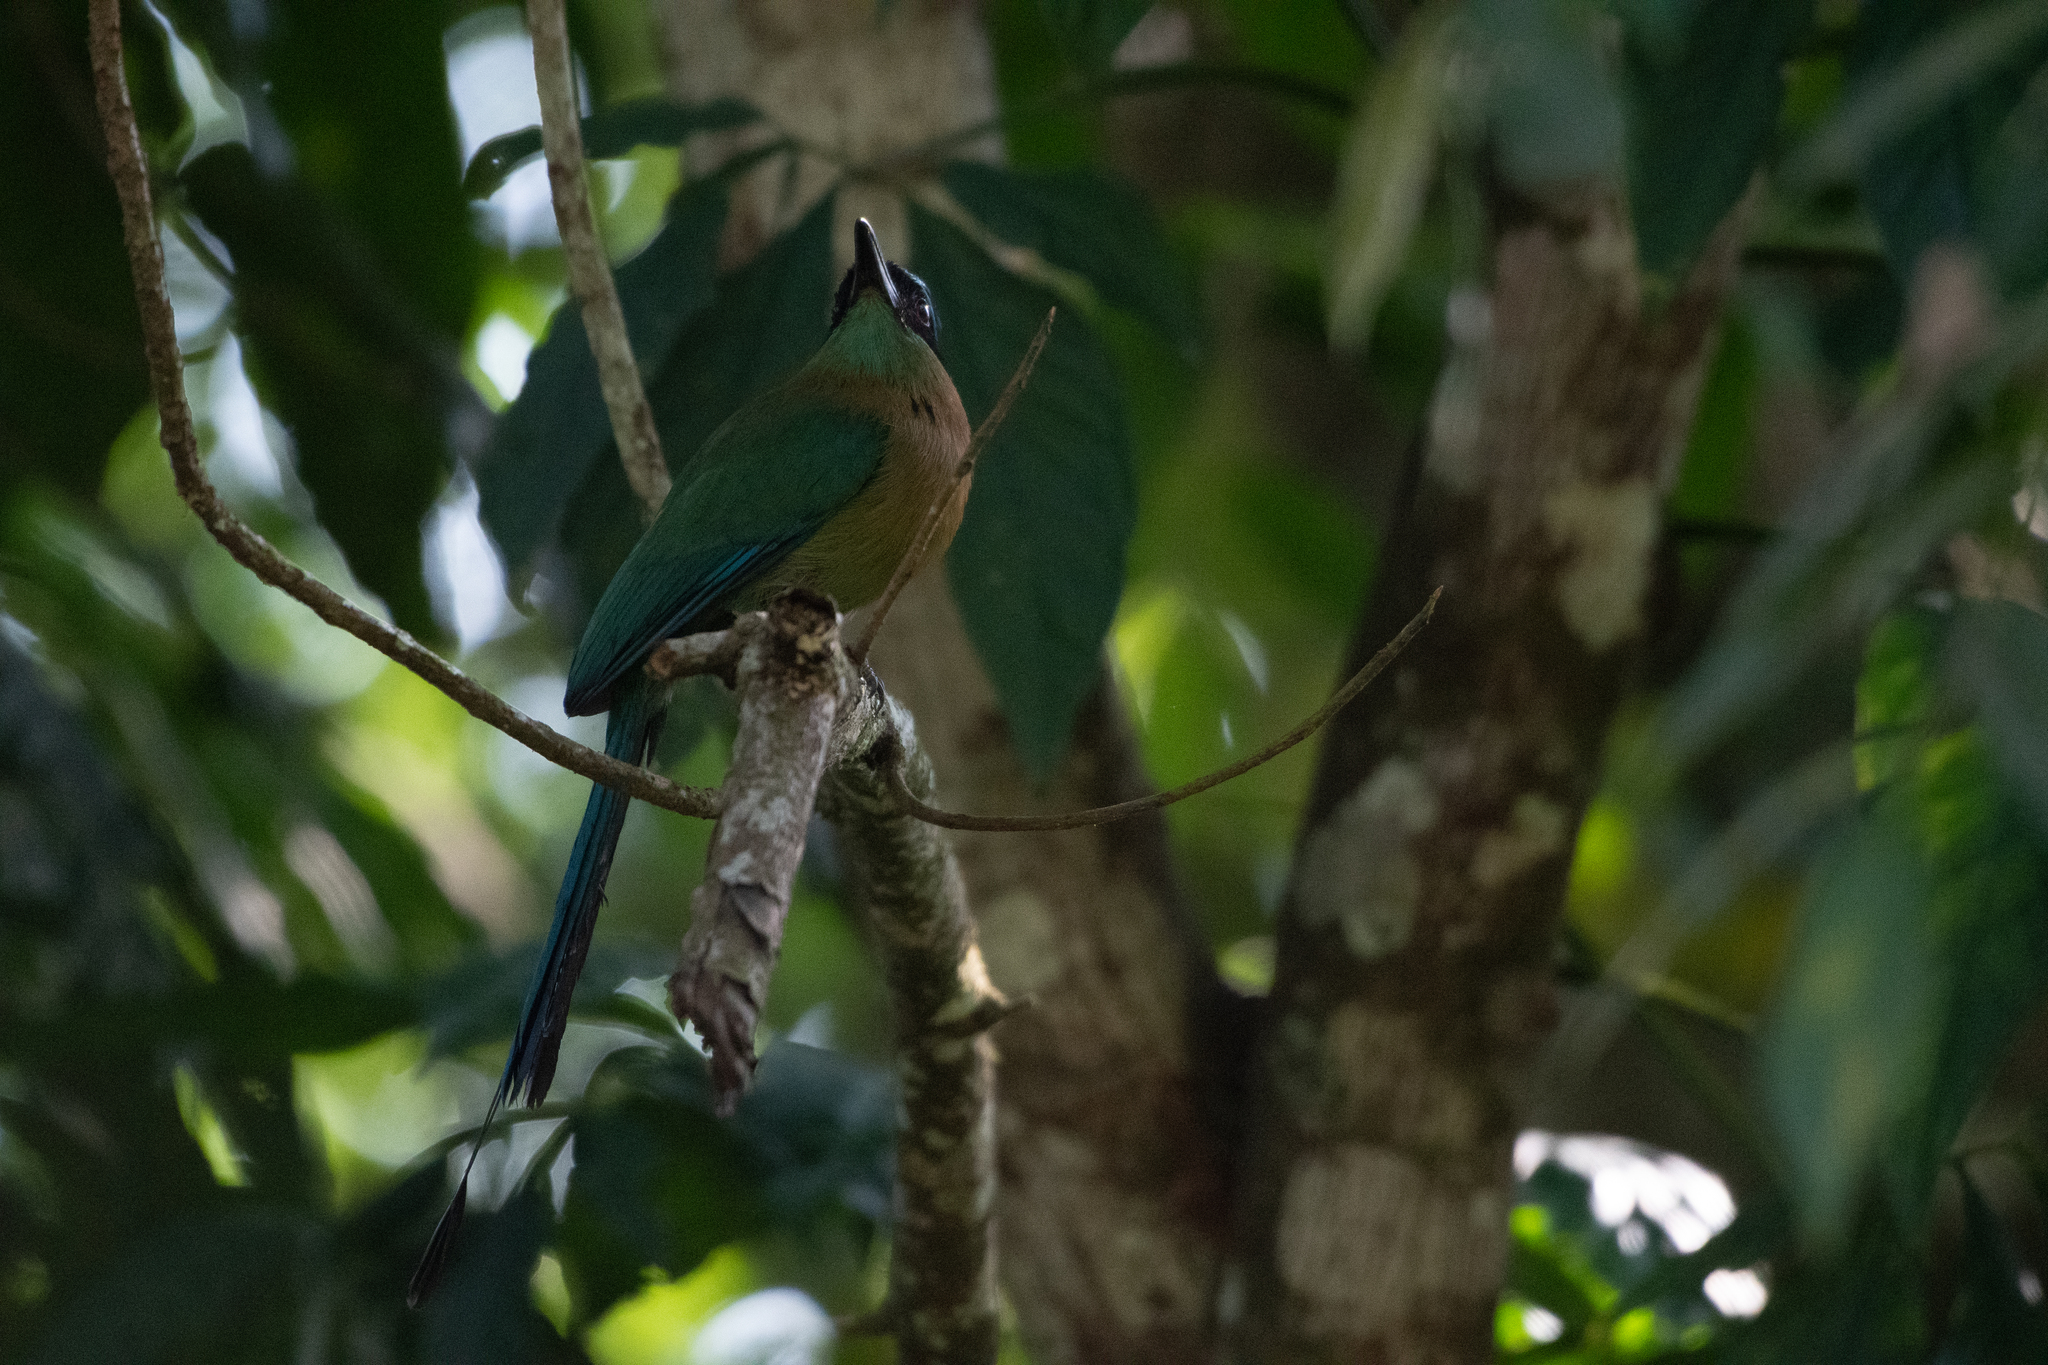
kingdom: Animalia
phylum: Chordata
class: Aves
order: Coraciiformes
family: Momotidae
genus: Momotus
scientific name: Momotus lessonii
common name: Lesson's motmot
